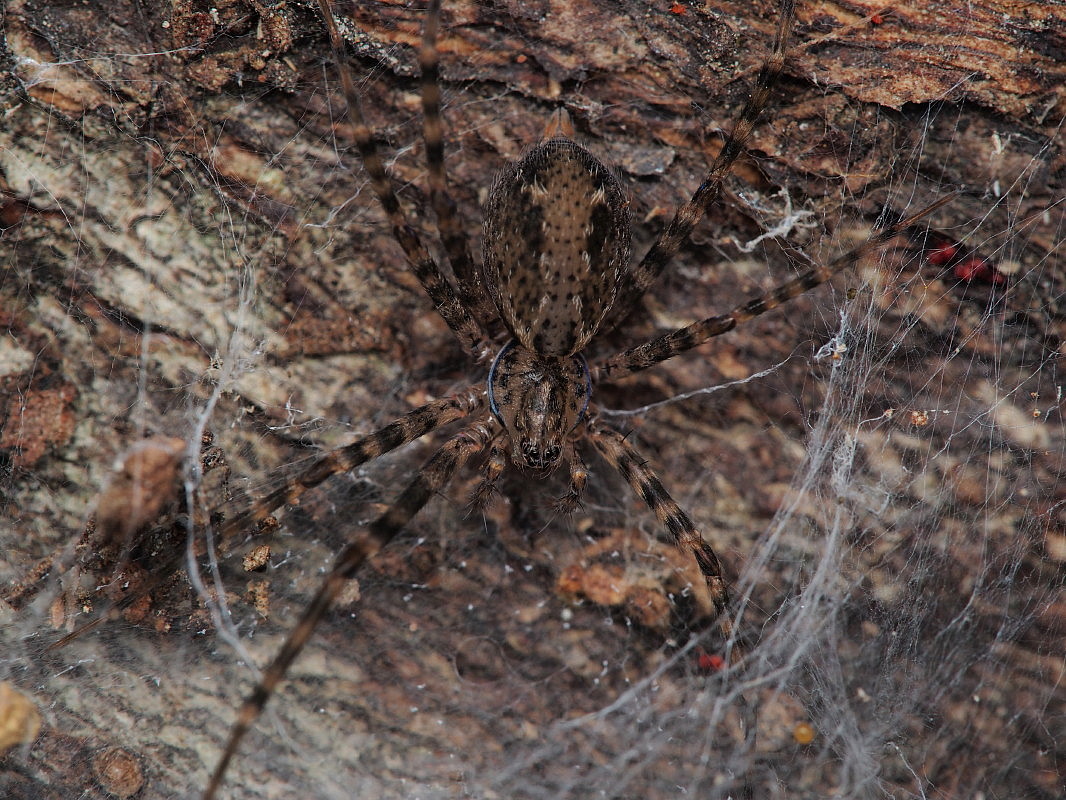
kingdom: Animalia
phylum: Arthropoda
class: Arachnida
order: Araneae
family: Stiphidiidae
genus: Stiphidion
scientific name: Stiphidion facetum
